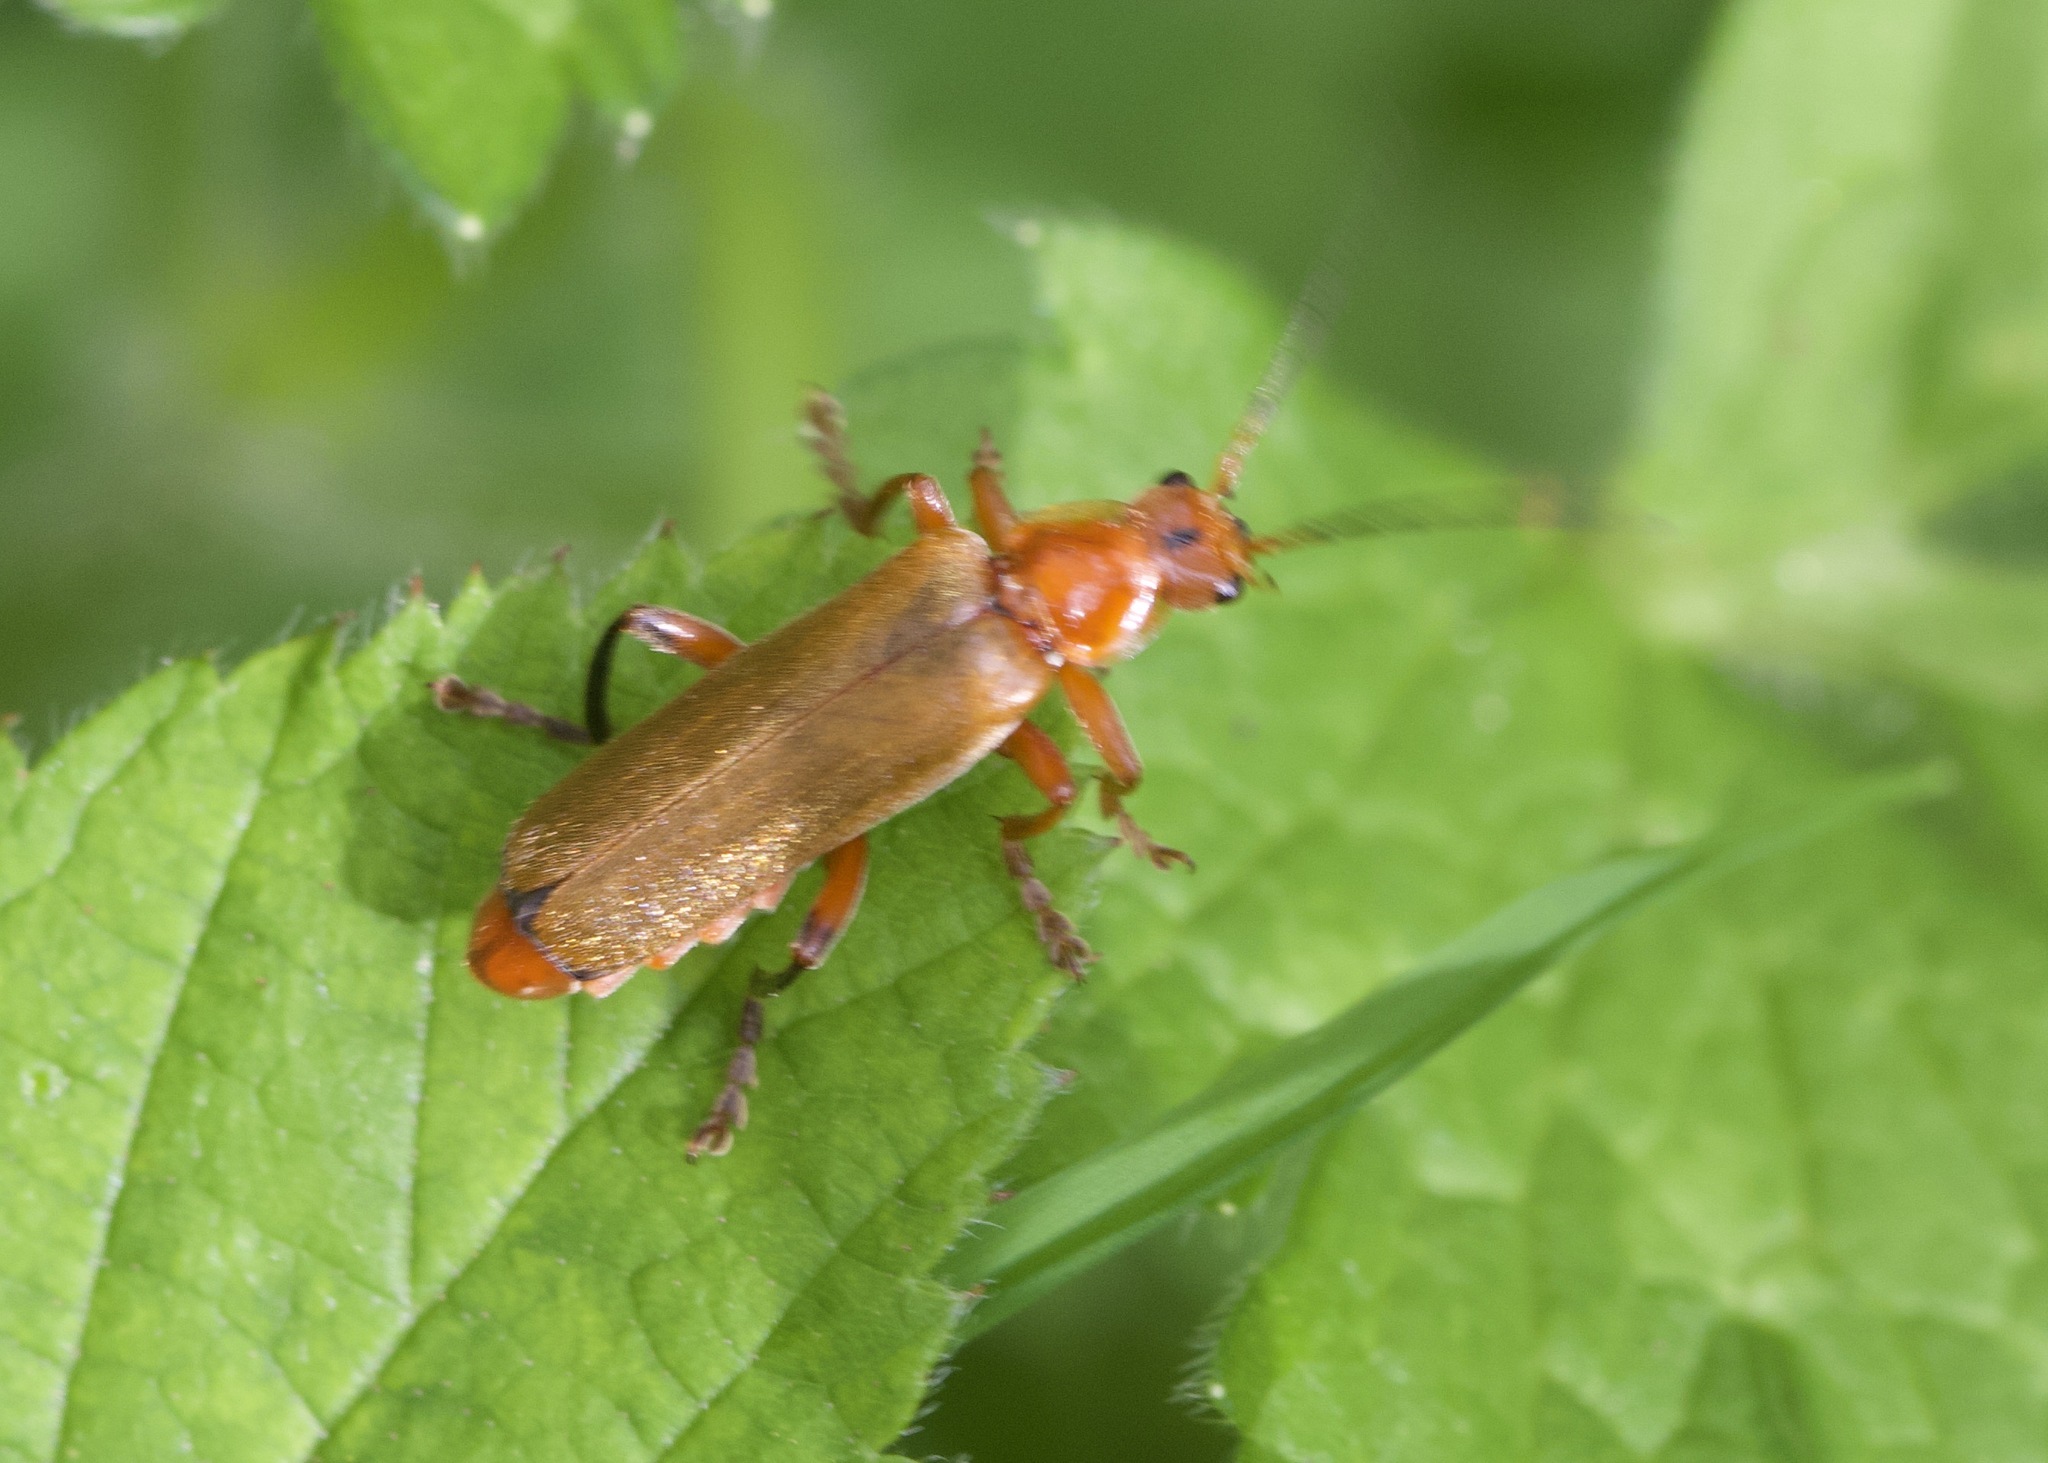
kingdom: Animalia
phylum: Arthropoda
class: Insecta
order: Coleoptera
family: Cantharidae
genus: Cantharis
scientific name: Cantharis livida
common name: Livid soldier beetle
